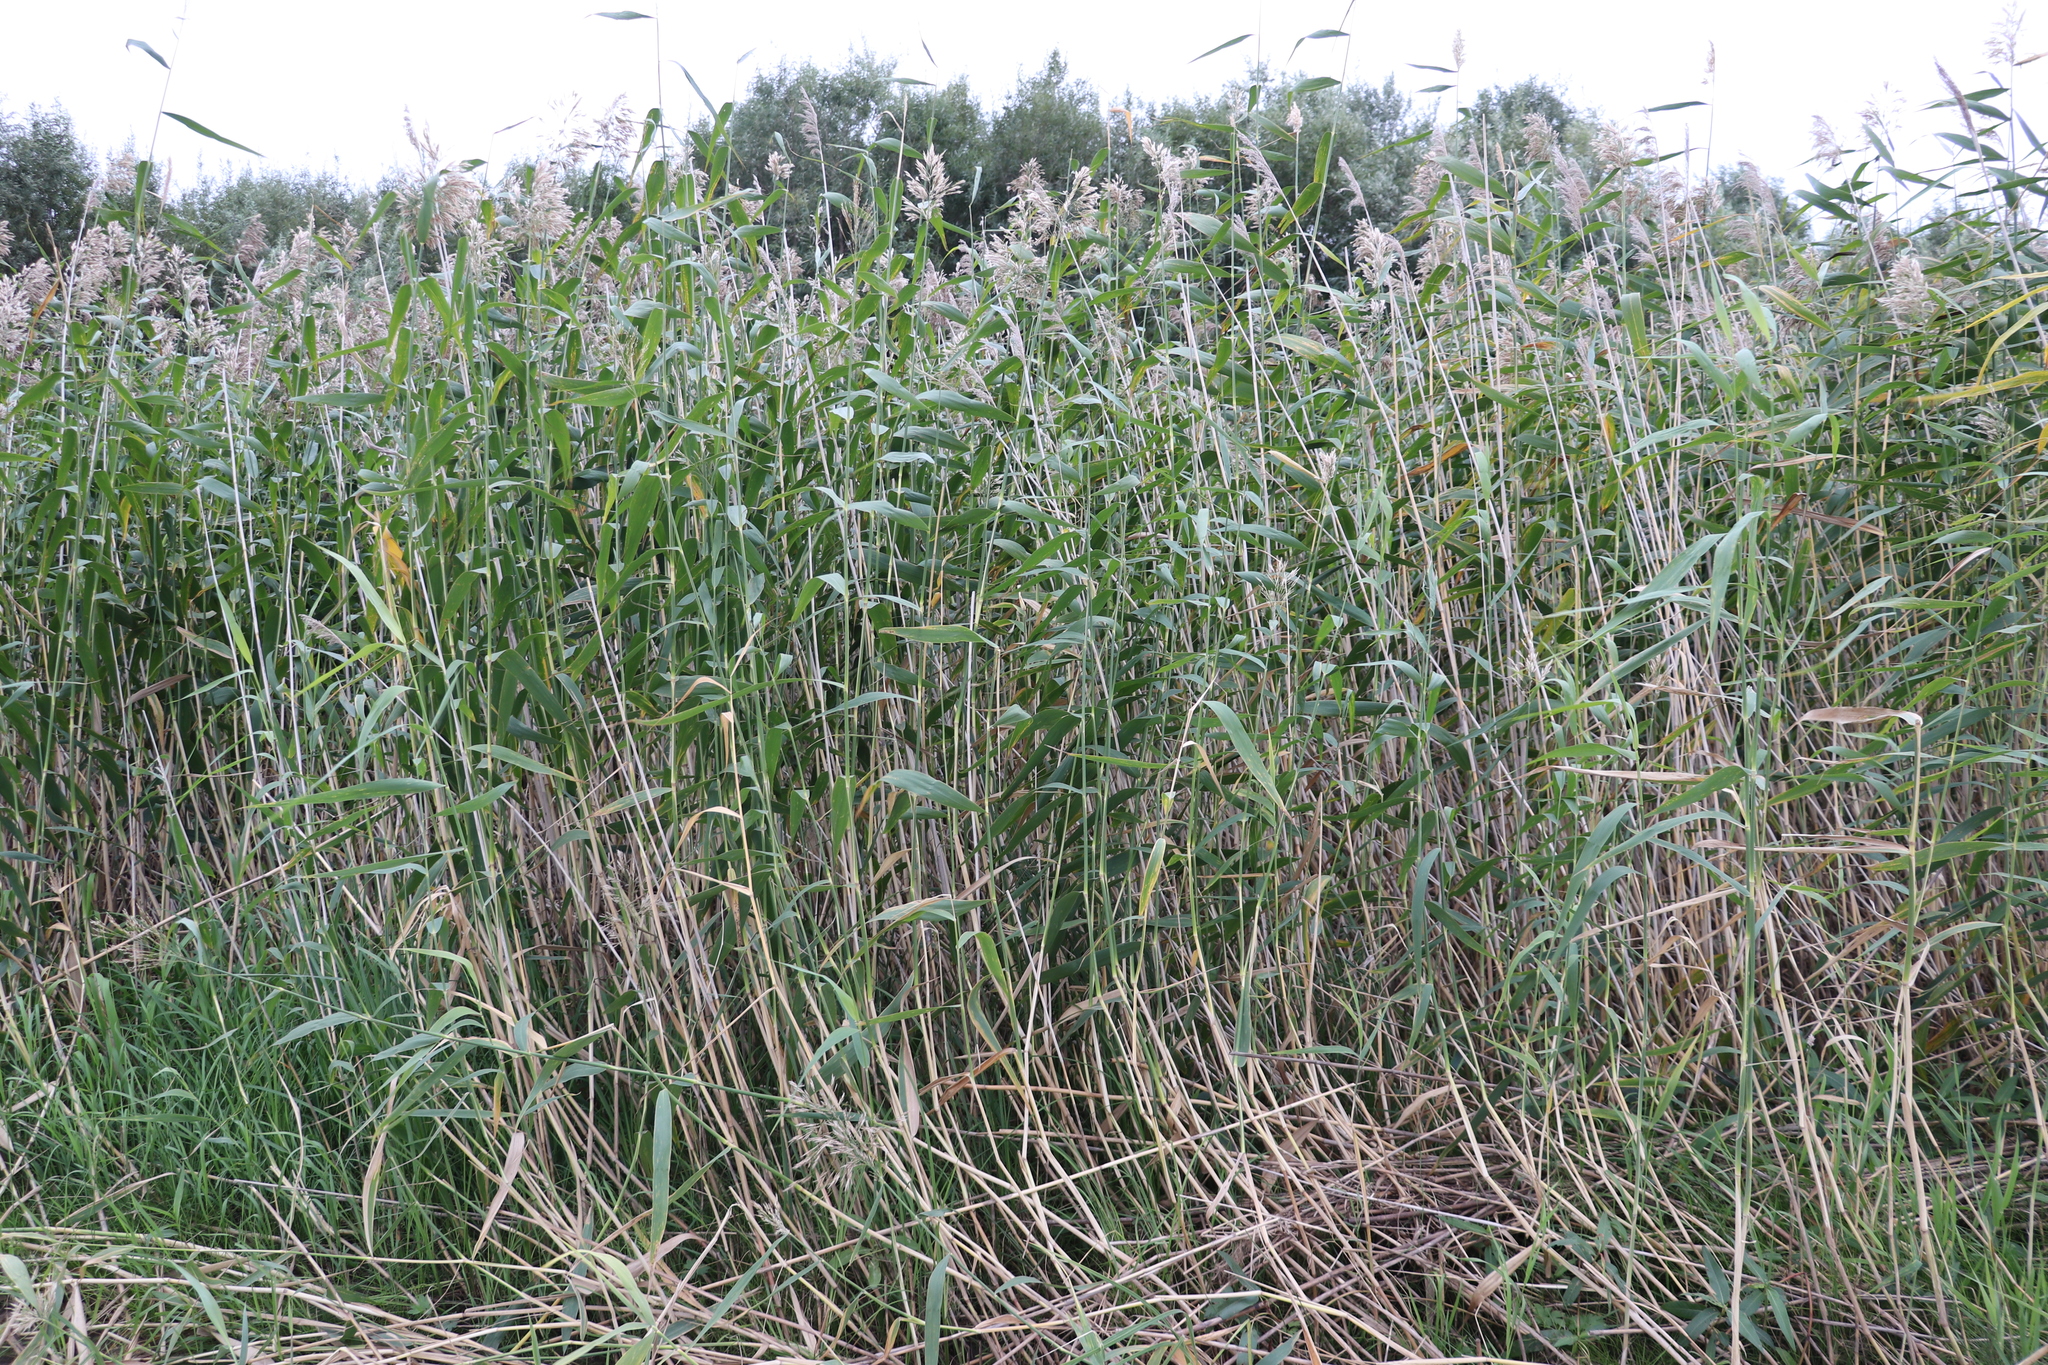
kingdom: Plantae
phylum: Tracheophyta
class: Liliopsida
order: Poales
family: Poaceae
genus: Phragmites
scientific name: Phragmites australis
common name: Common reed
